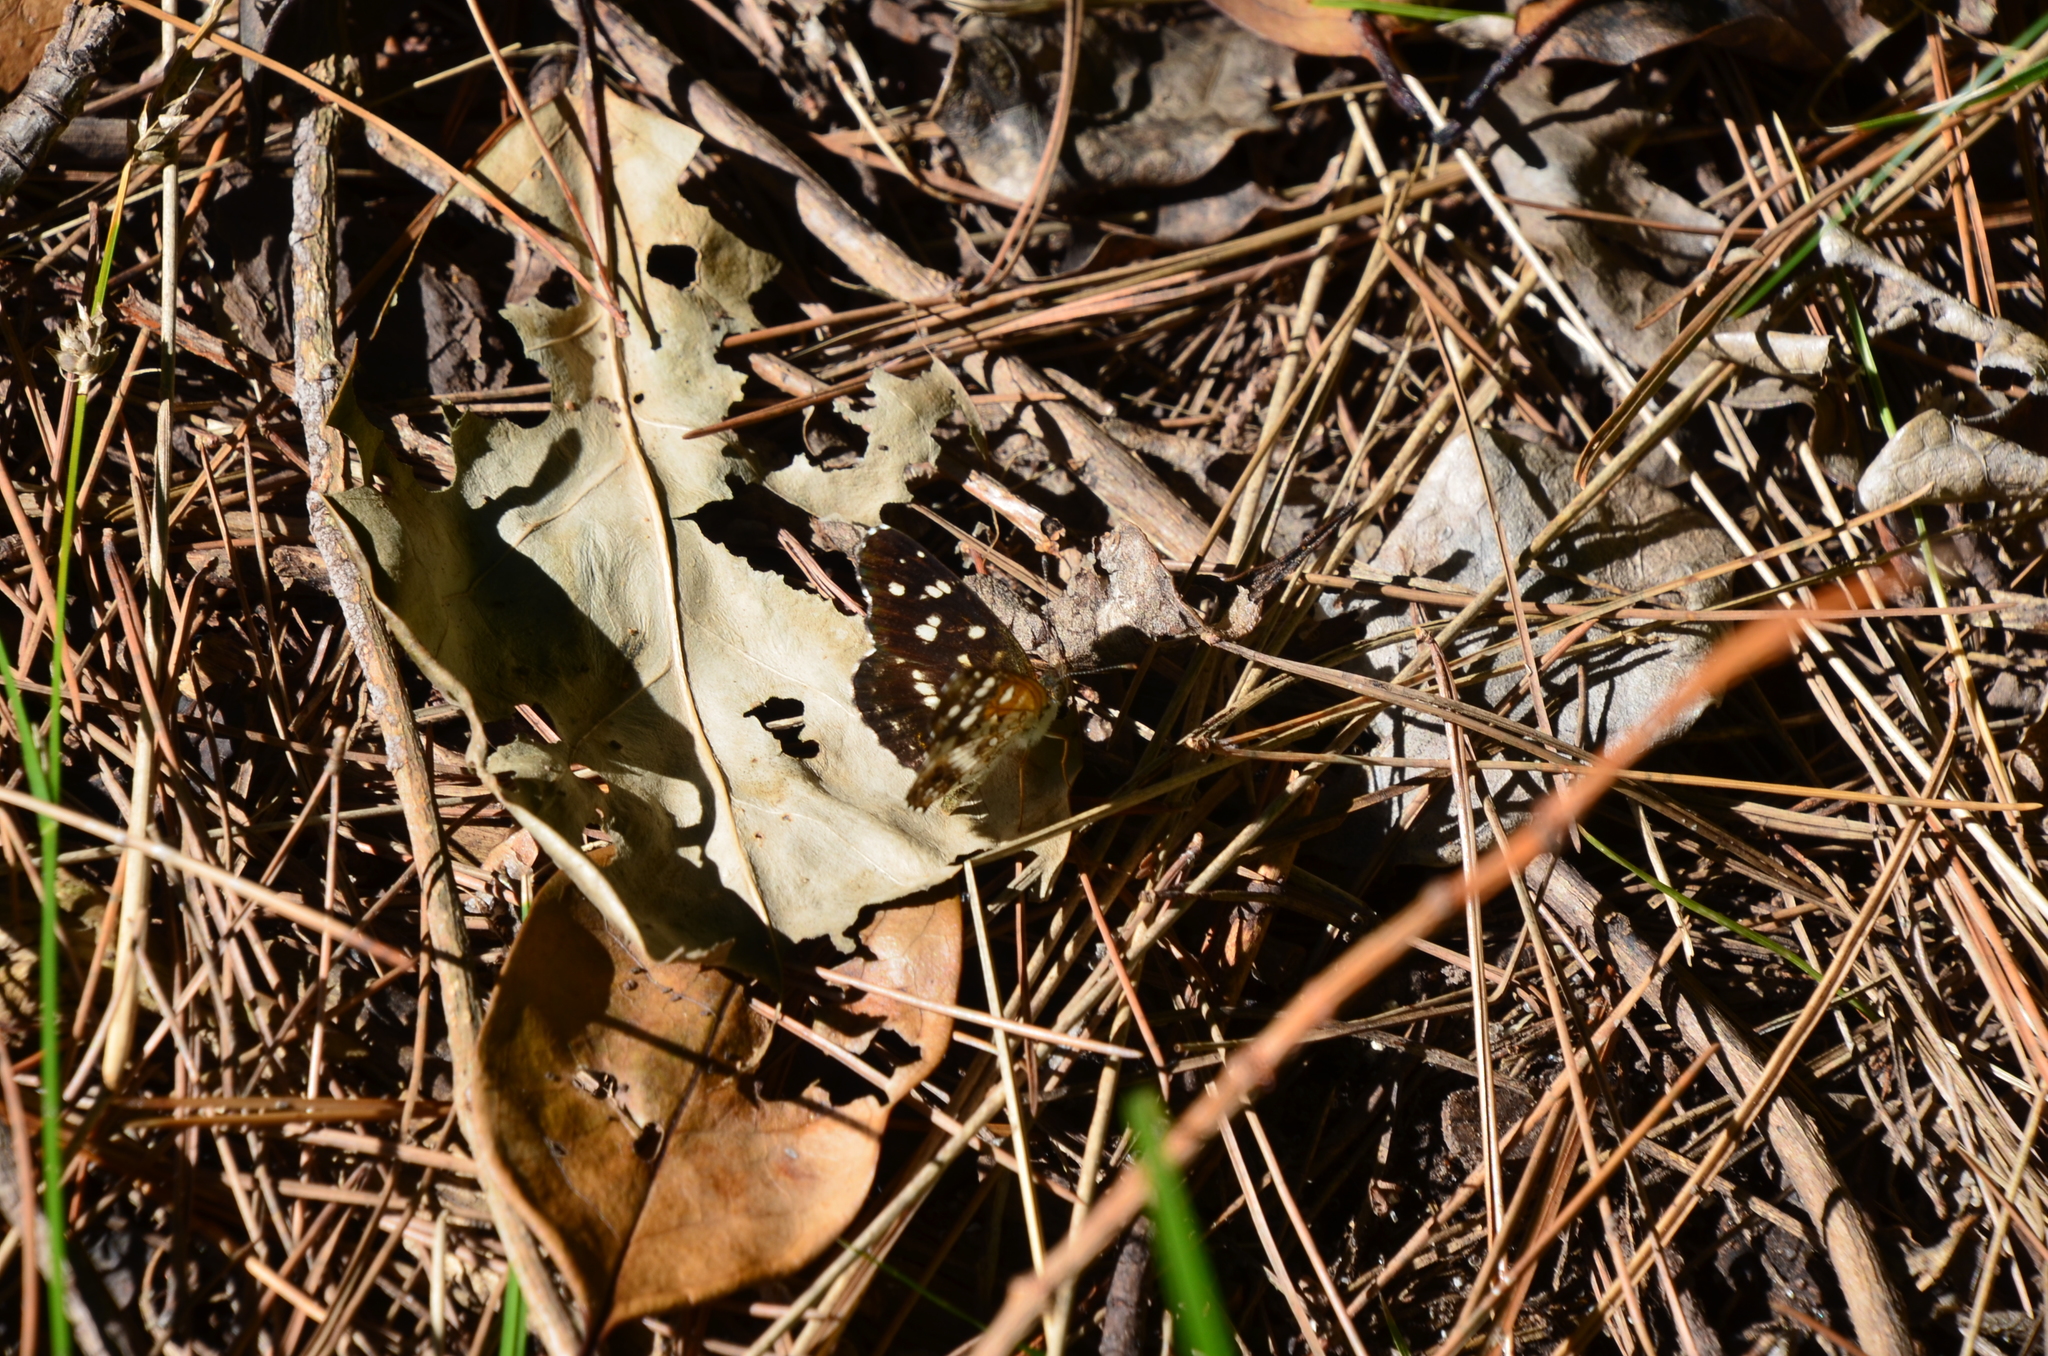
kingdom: Animalia
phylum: Arthropoda
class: Insecta
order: Lepidoptera
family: Nymphalidae
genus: Ortilia
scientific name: Ortilia ithra
